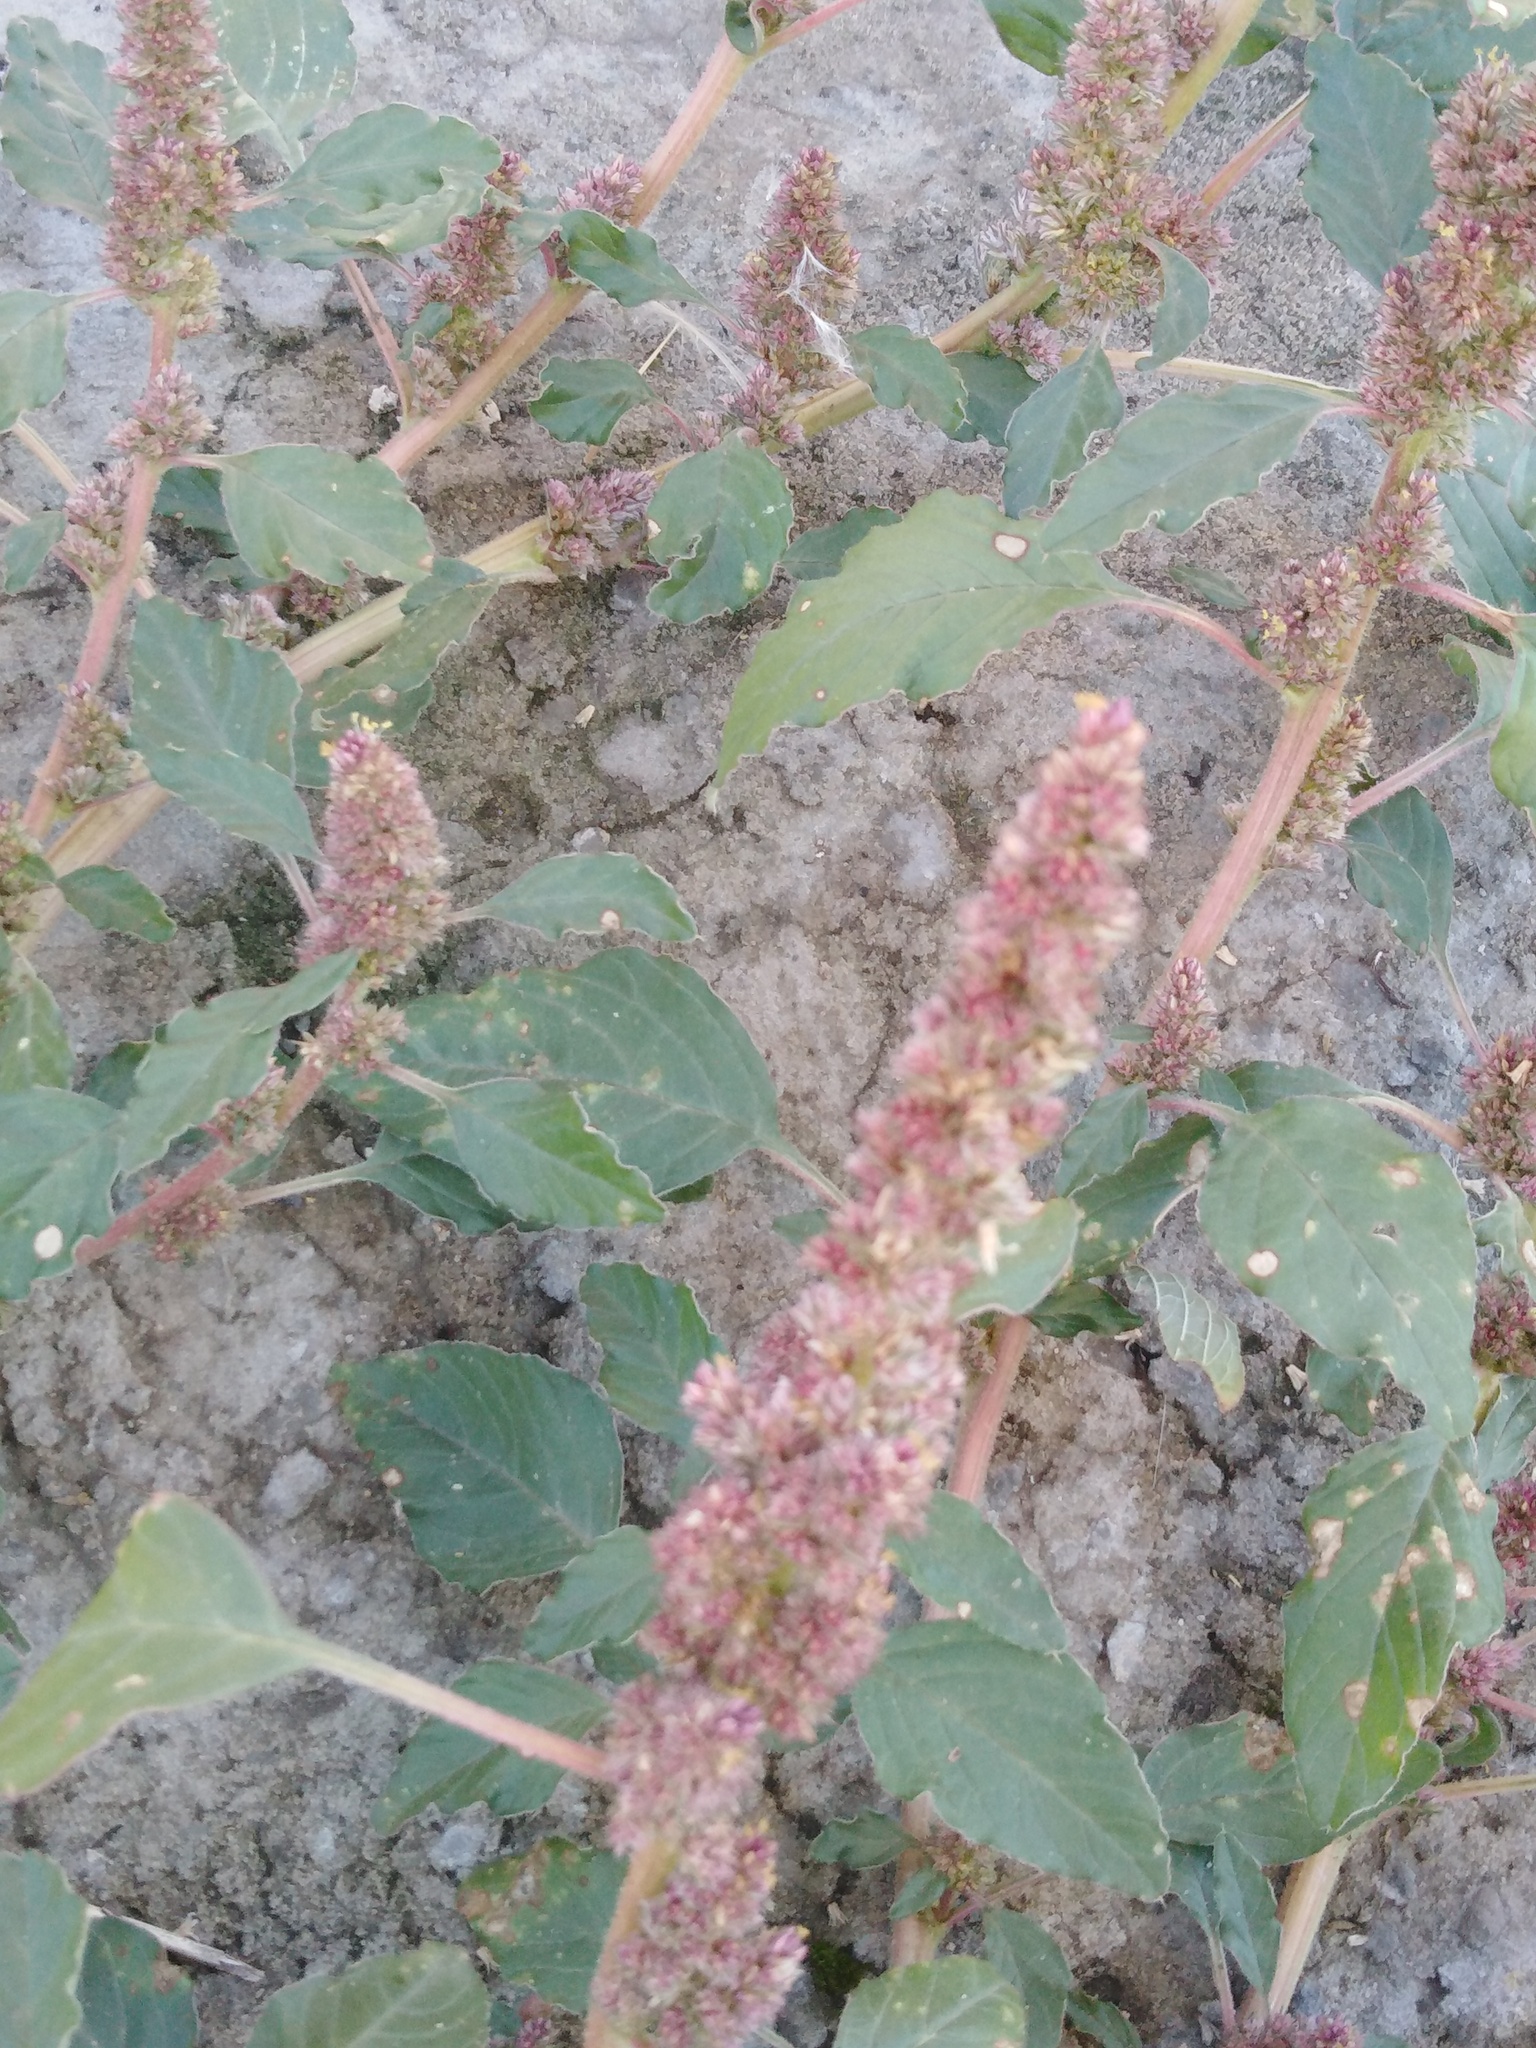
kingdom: Plantae
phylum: Tracheophyta
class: Magnoliopsida
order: Caryophyllales
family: Amaranthaceae
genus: Amaranthus
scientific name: Amaranthus retroflexus
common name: Redroot amaranth
